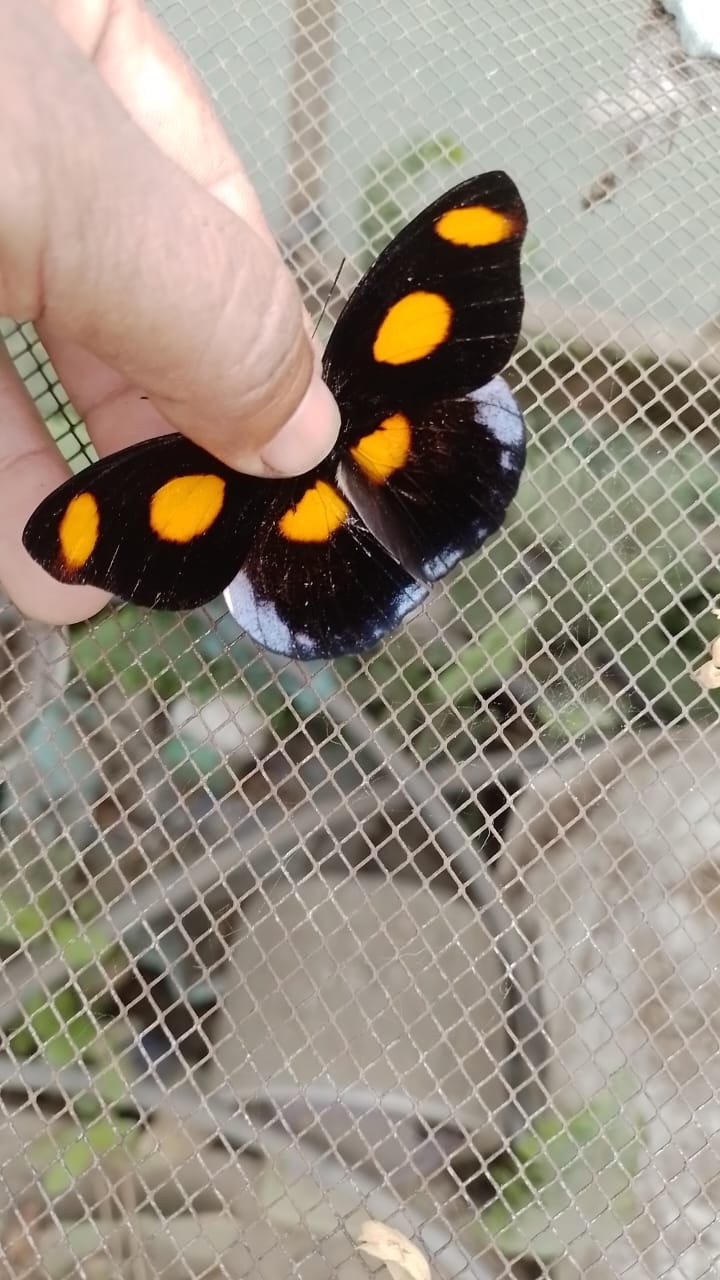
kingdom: Animalia
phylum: Arthropoda
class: Insecta
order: Lepidoptera
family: Nymphalidae
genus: Catonephele
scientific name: Catonephele numilia
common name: Blue-frosted banner
